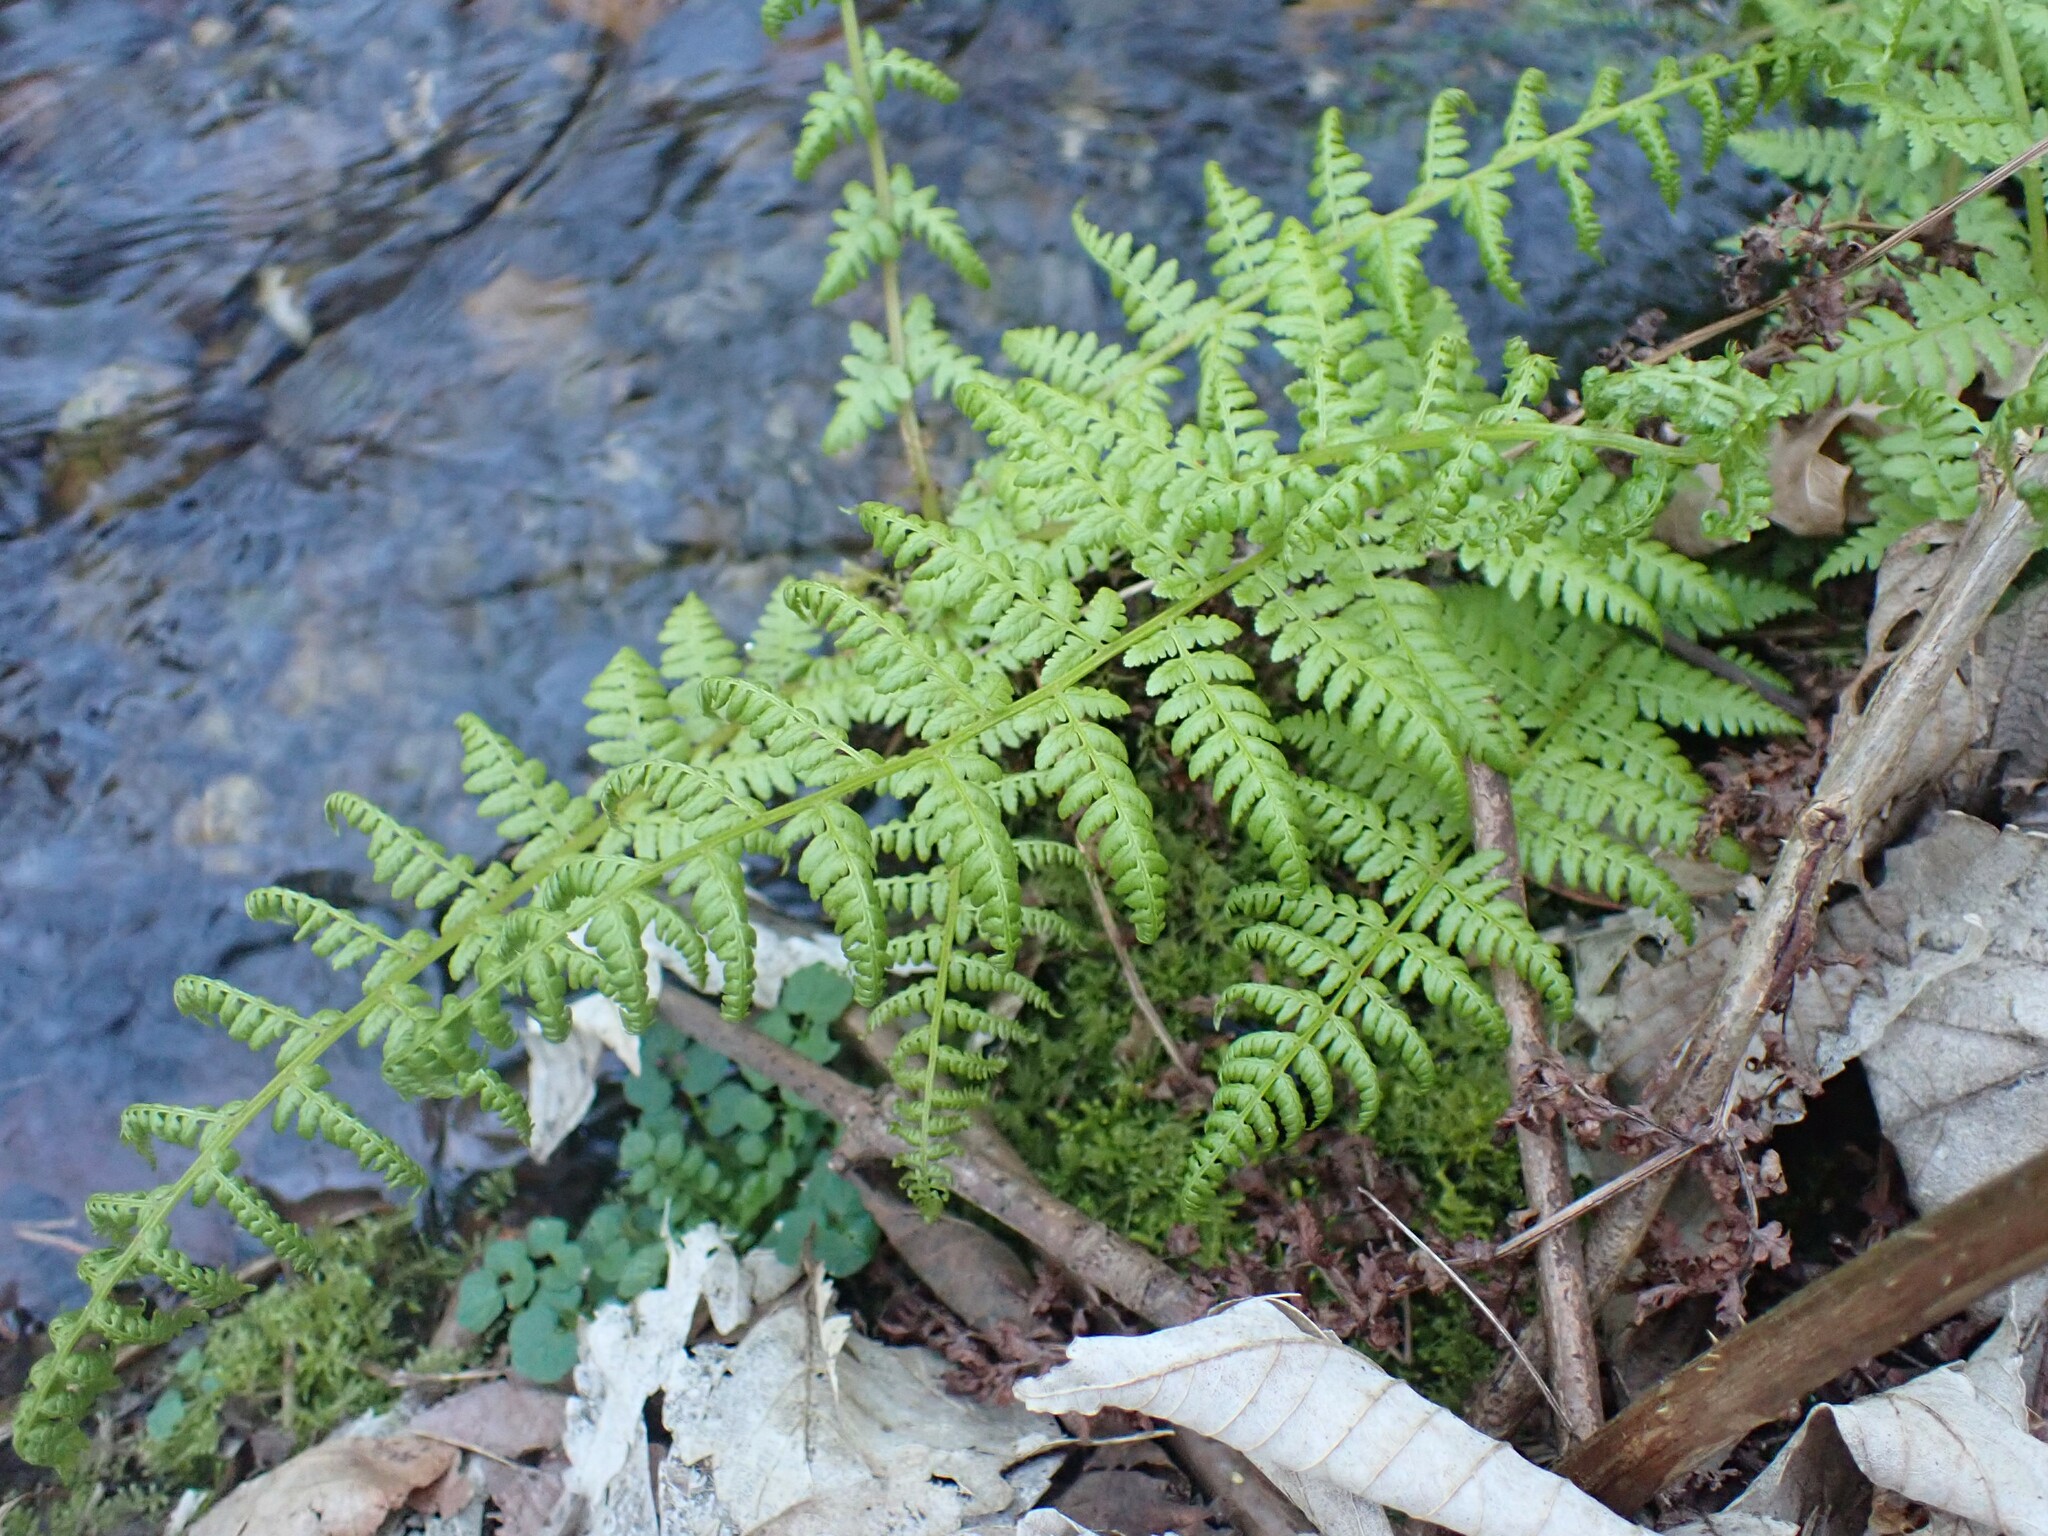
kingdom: Plantae
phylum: Tracheophyta
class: Polypodiopsida
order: Polypodiales
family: Athyriaceae
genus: Athyrium
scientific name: Athyrium filix-femina
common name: Lady fern
